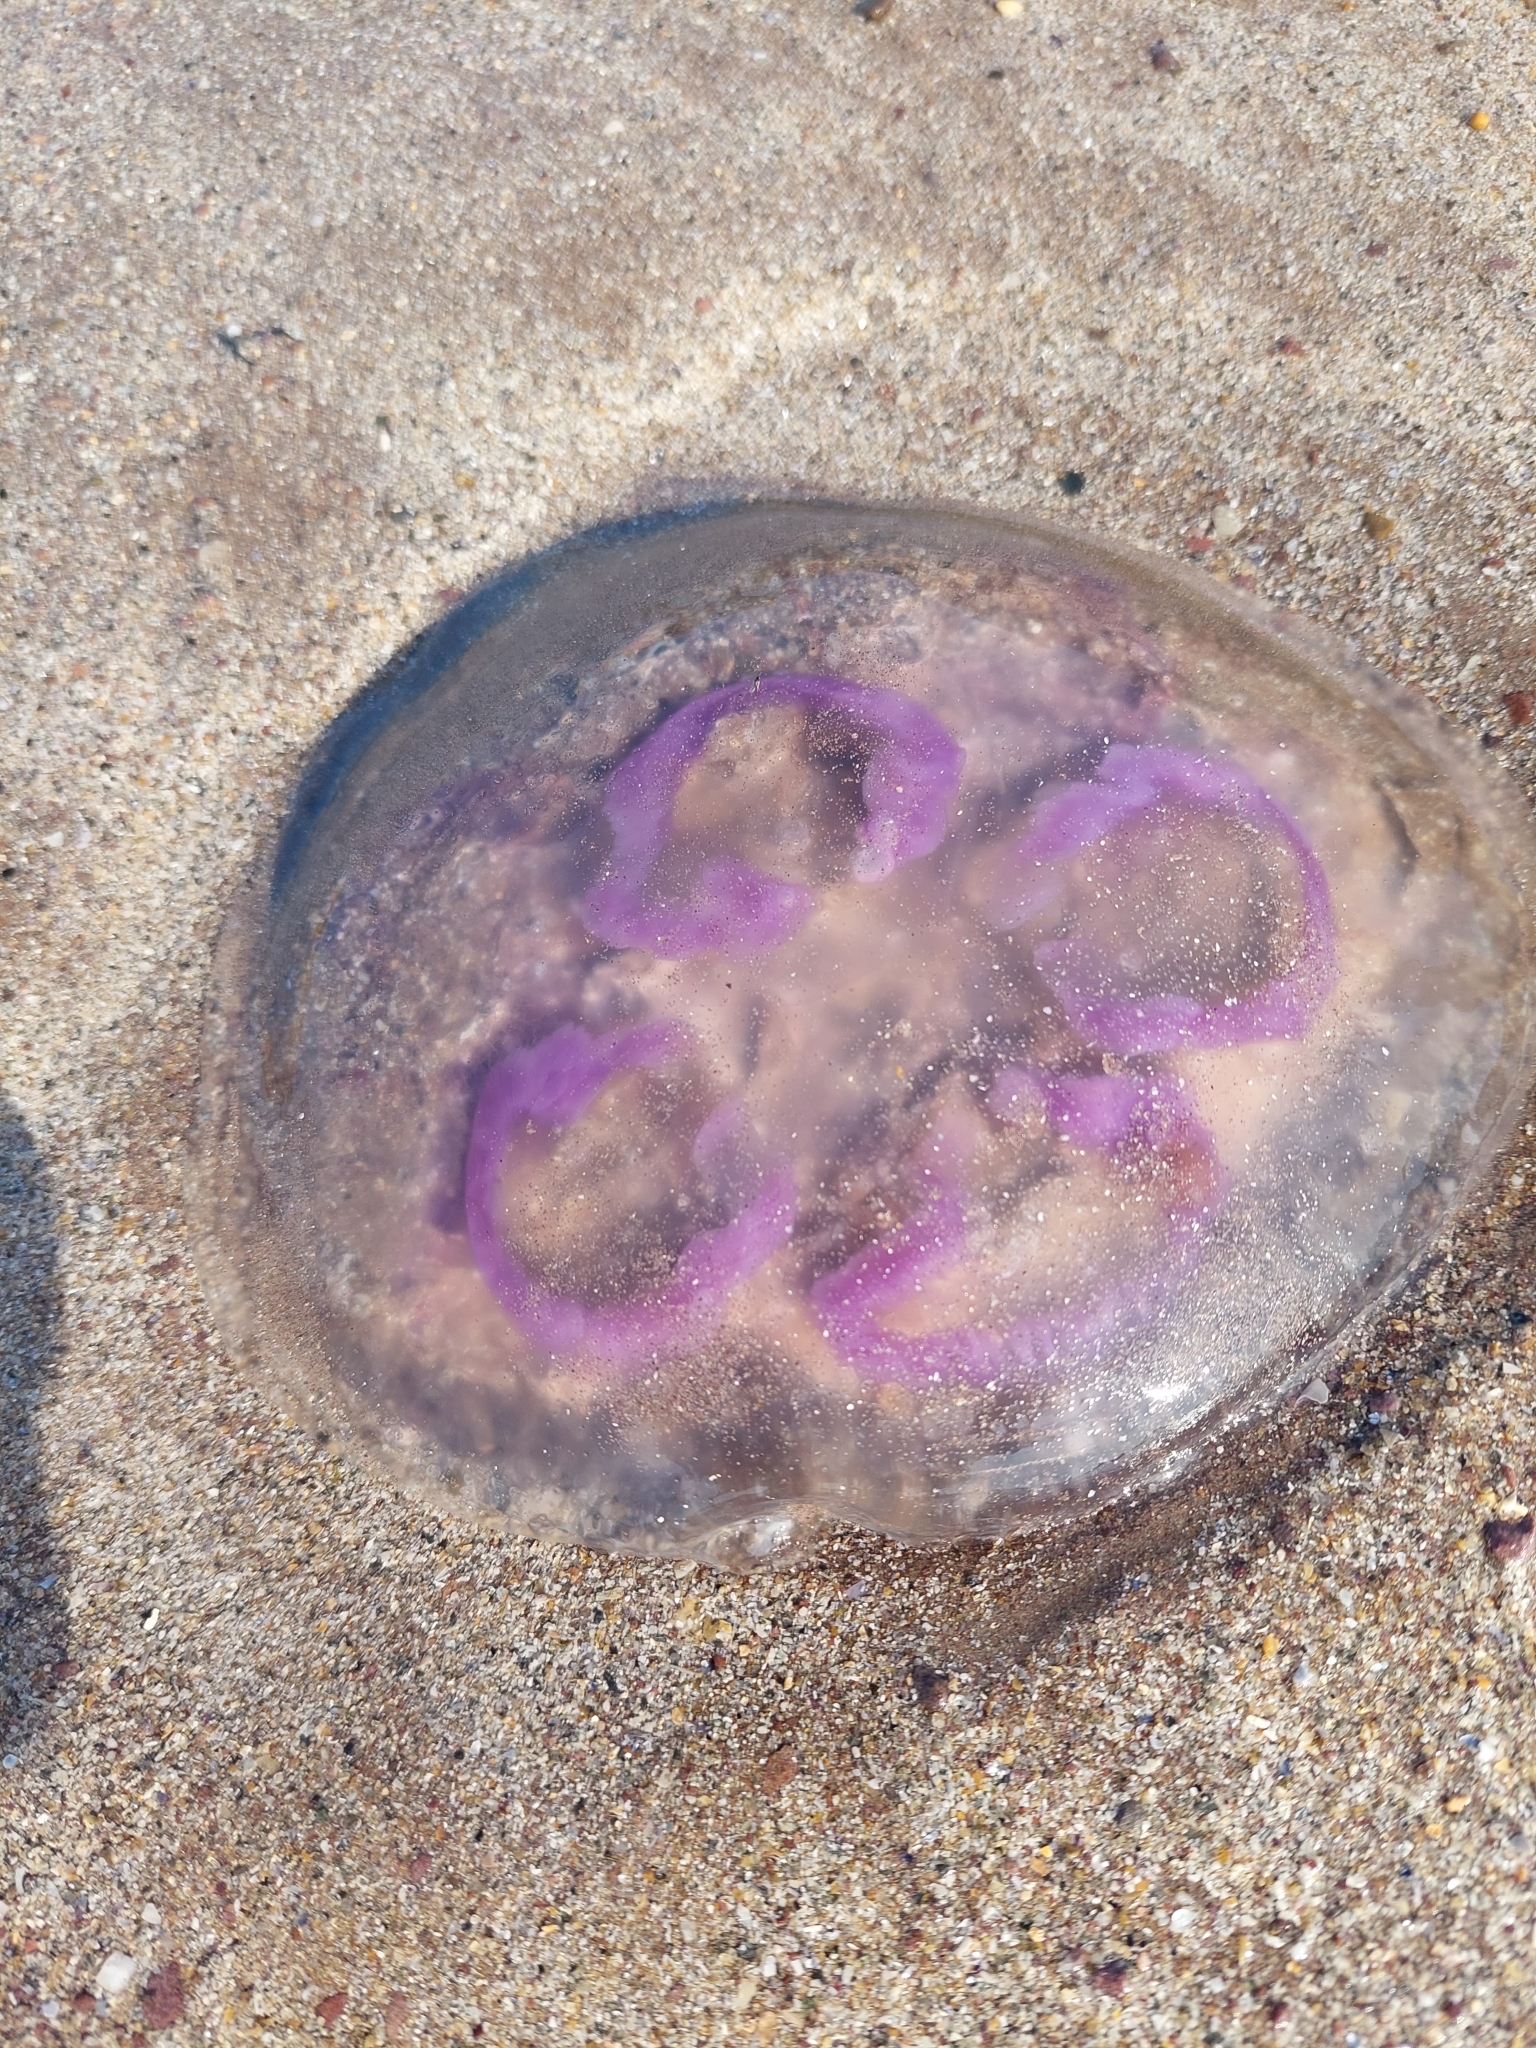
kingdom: Animalia
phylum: Cnidaria
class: Scyphozoa
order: Semaeostomeae
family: Ulmaridae
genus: Aurelia
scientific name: Aurelia aurita
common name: Moon jellyfish
